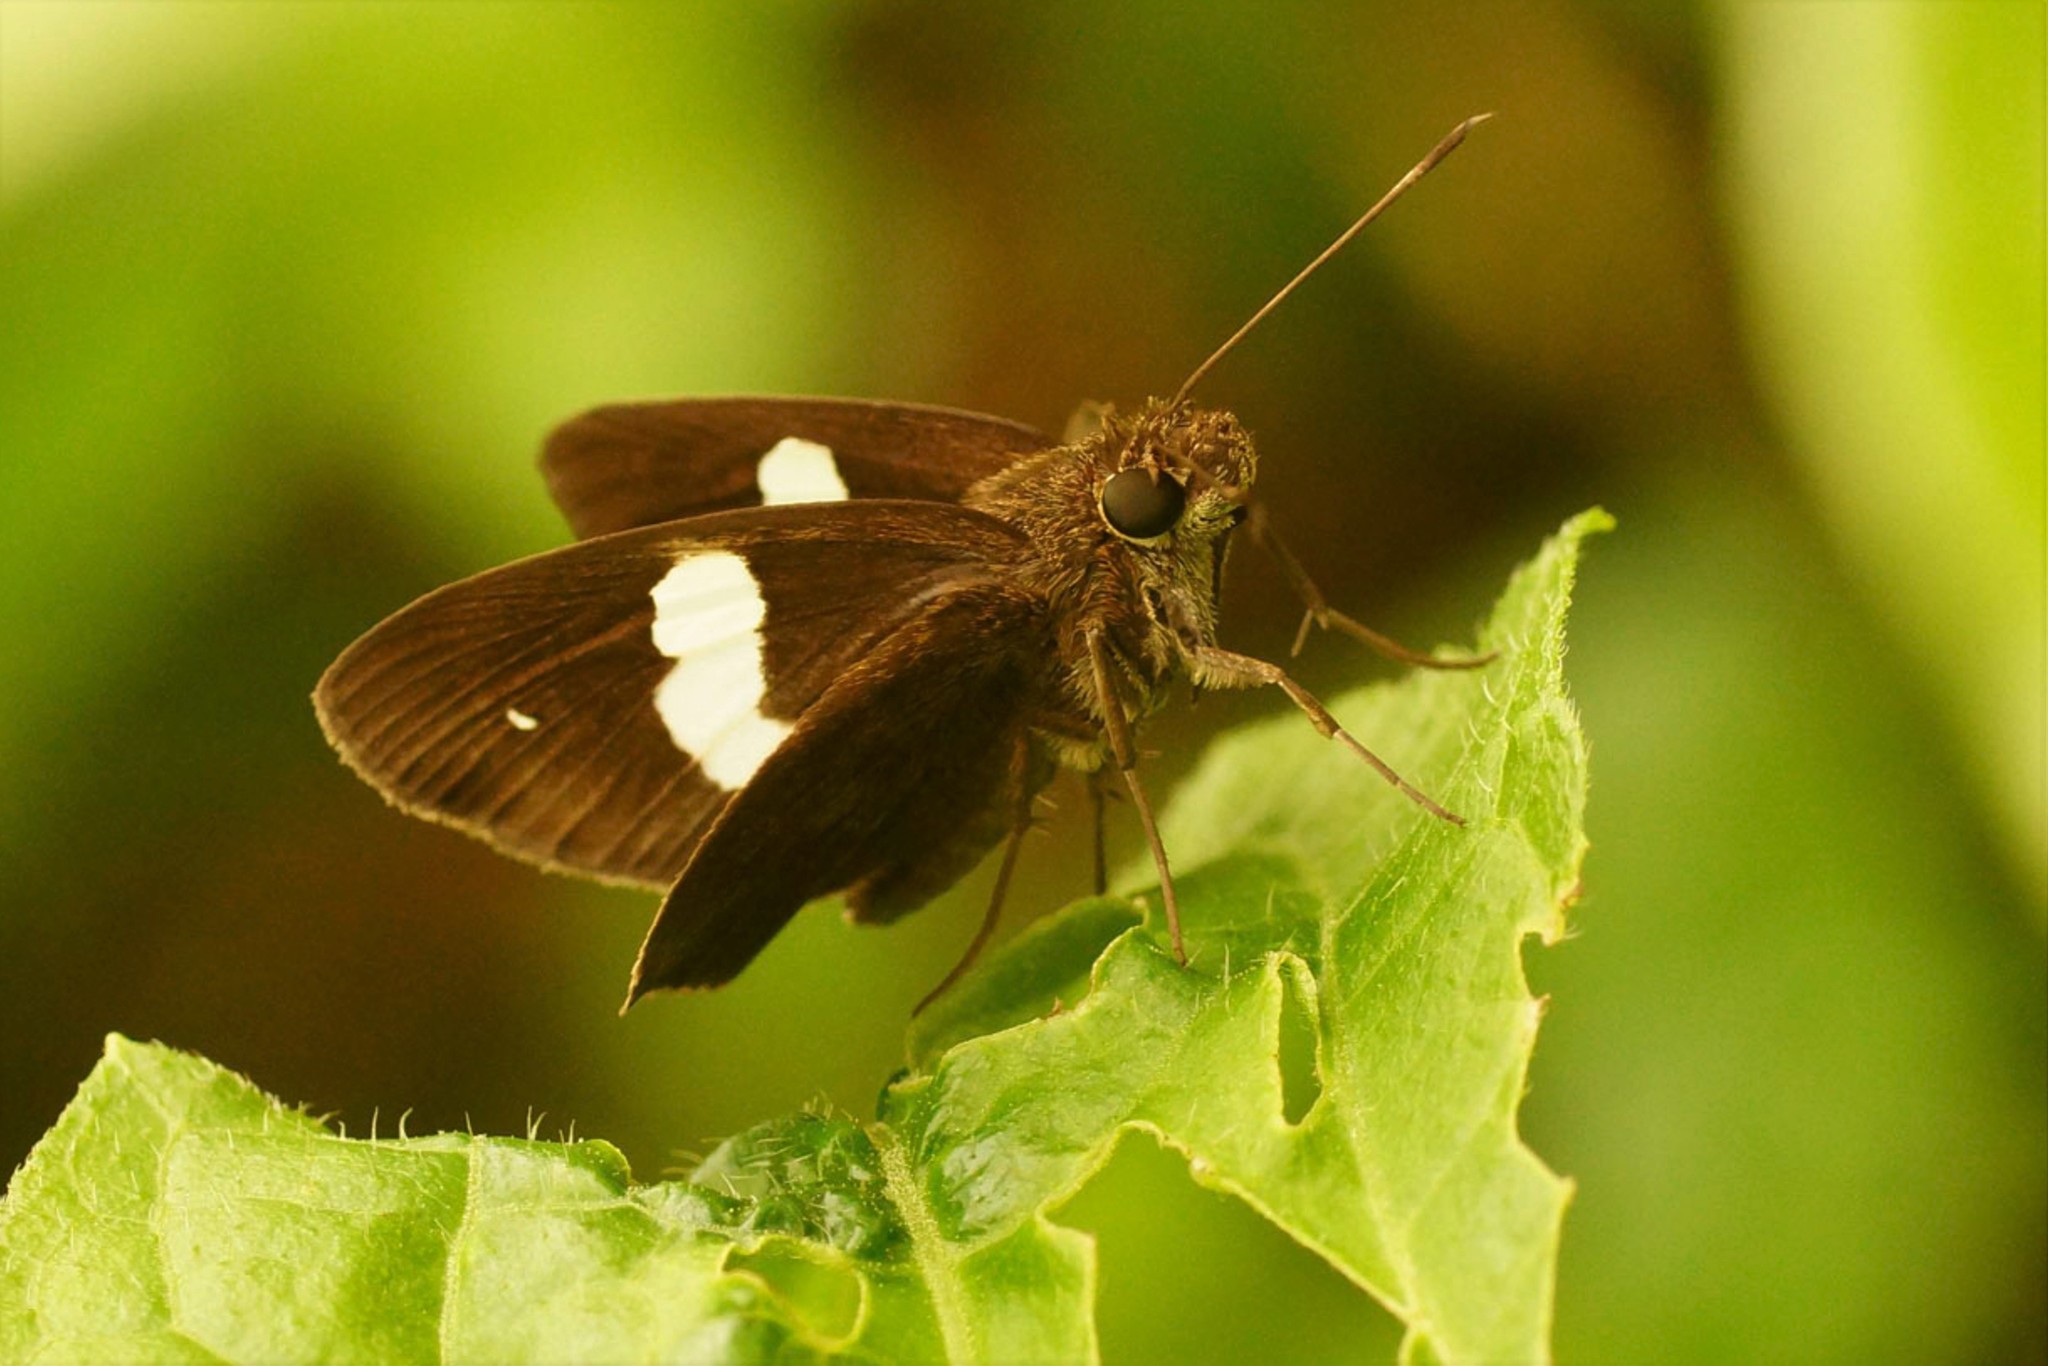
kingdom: Animalia
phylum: Arthropoda
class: Insecta
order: Lepidoptera
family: Hesperiidae
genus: Notocrypta
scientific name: Notocrypta paralysos
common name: Common banded demon
